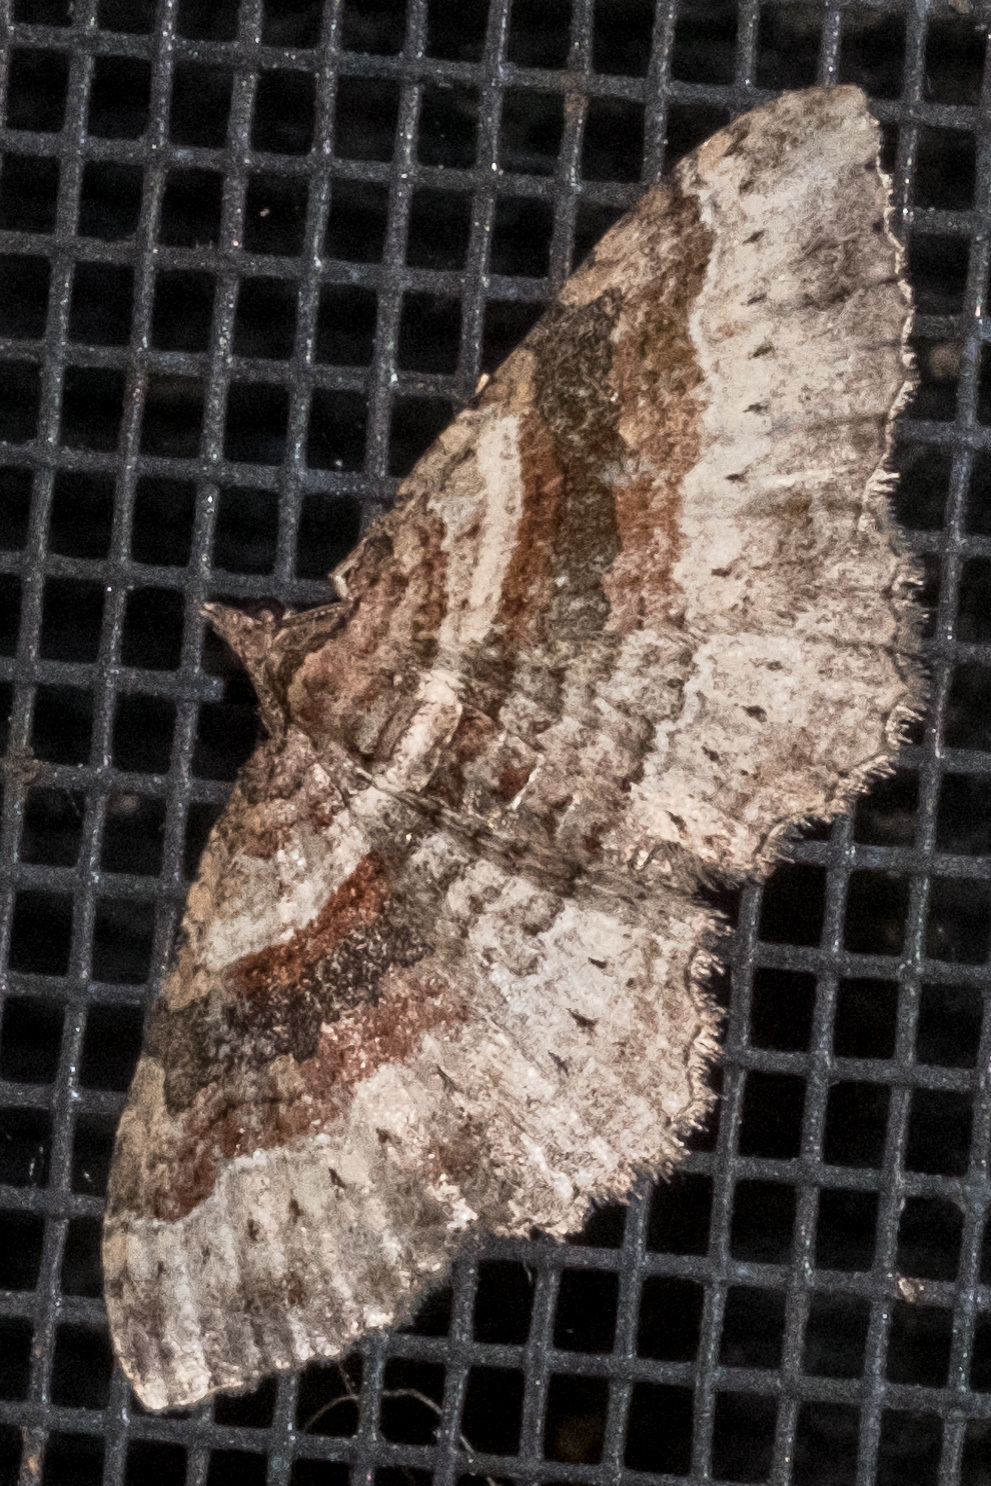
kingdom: Animalia
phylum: Arthropoda
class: Insecta
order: Lepidoptera
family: Geometridae
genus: Costaconvexa
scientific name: Costaconvexa centrostrigaria
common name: Bent-line carpet
